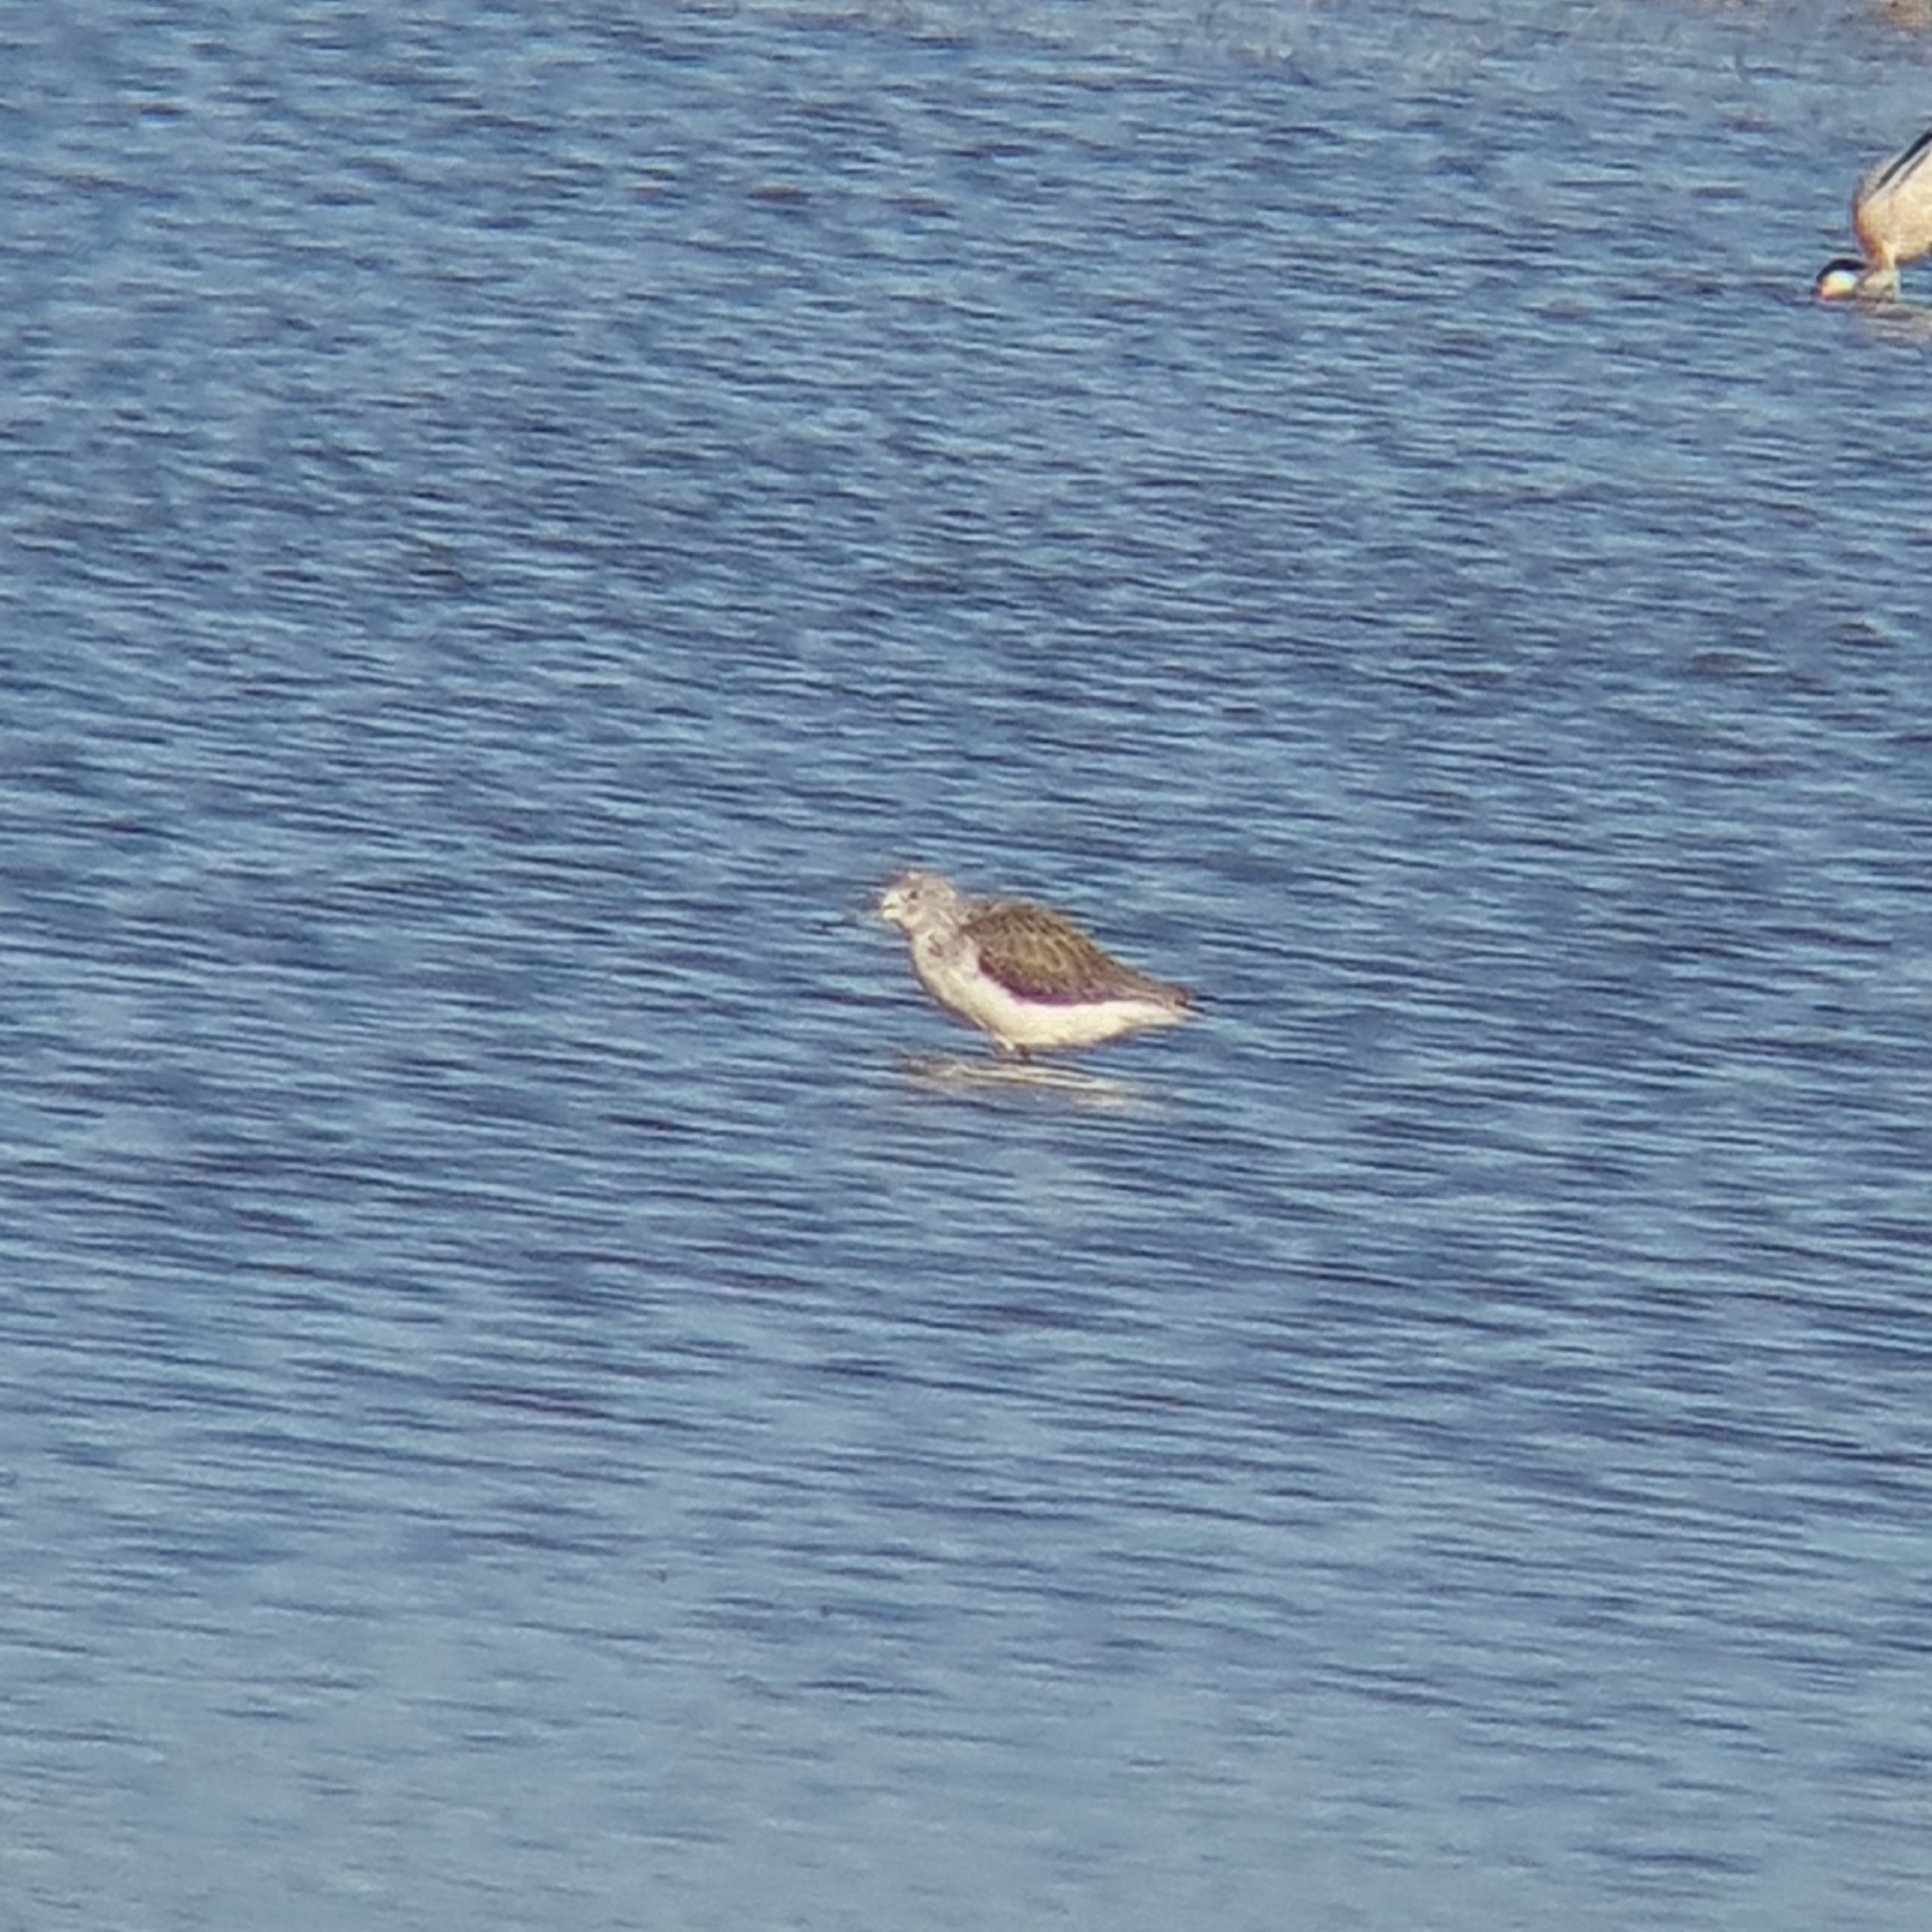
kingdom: Animalia
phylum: Chordata
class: Aves
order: Charadriiformes
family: Scolopacidae
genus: Tringa
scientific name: Tringa nebularia
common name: Common greenshank
